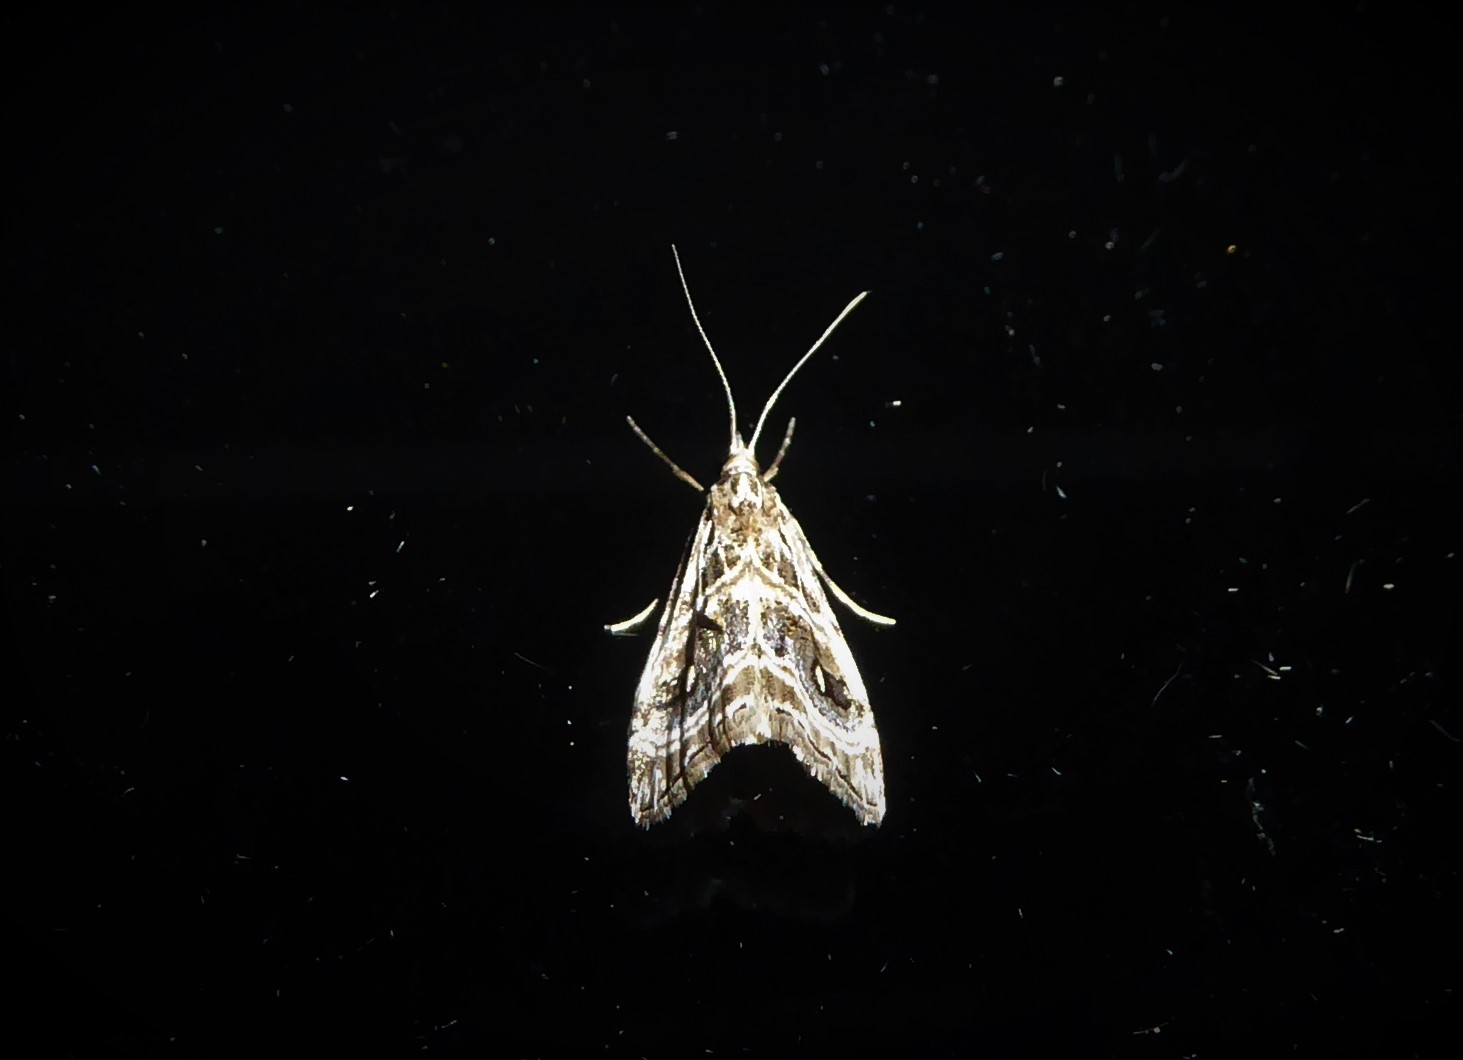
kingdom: Animalia
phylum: Arthropoda
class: Insecta
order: Lepidoptera
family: Crambidae
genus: Gadira
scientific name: Gadira acerella
